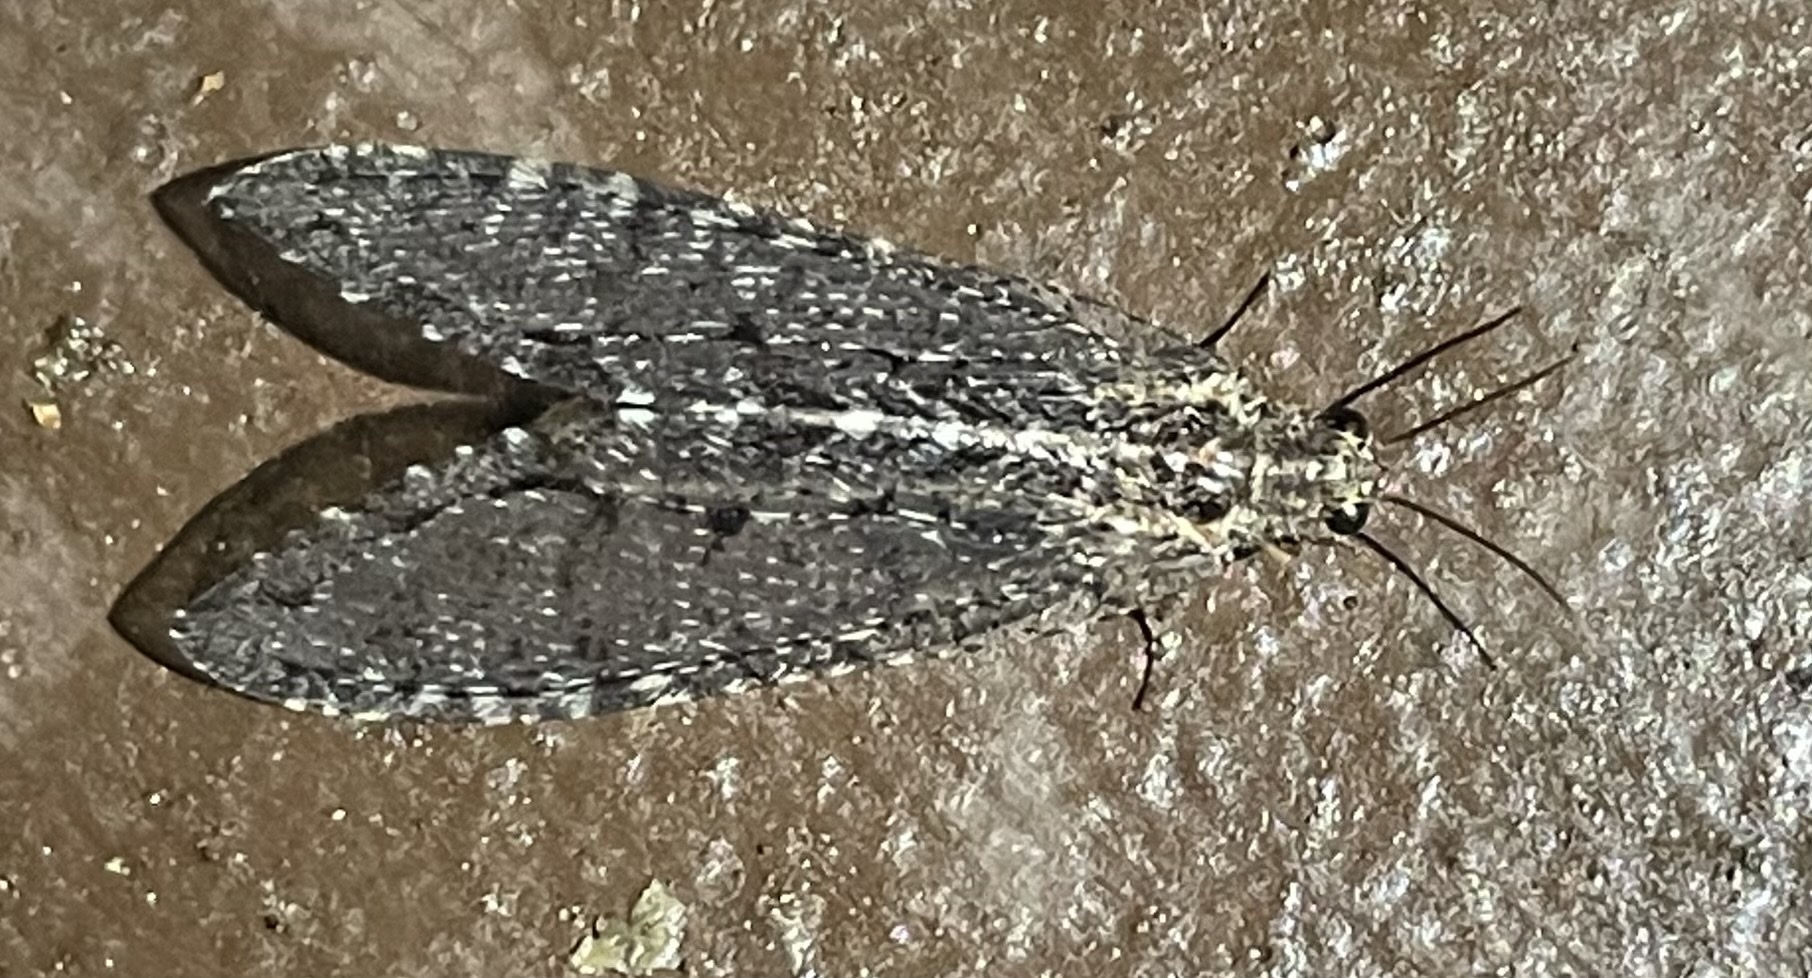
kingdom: Animalia
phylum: Arthropoda
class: Insecta
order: Neuroptera
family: Ithonidae
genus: Polystoechotes
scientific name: Polystoechotes punctata
